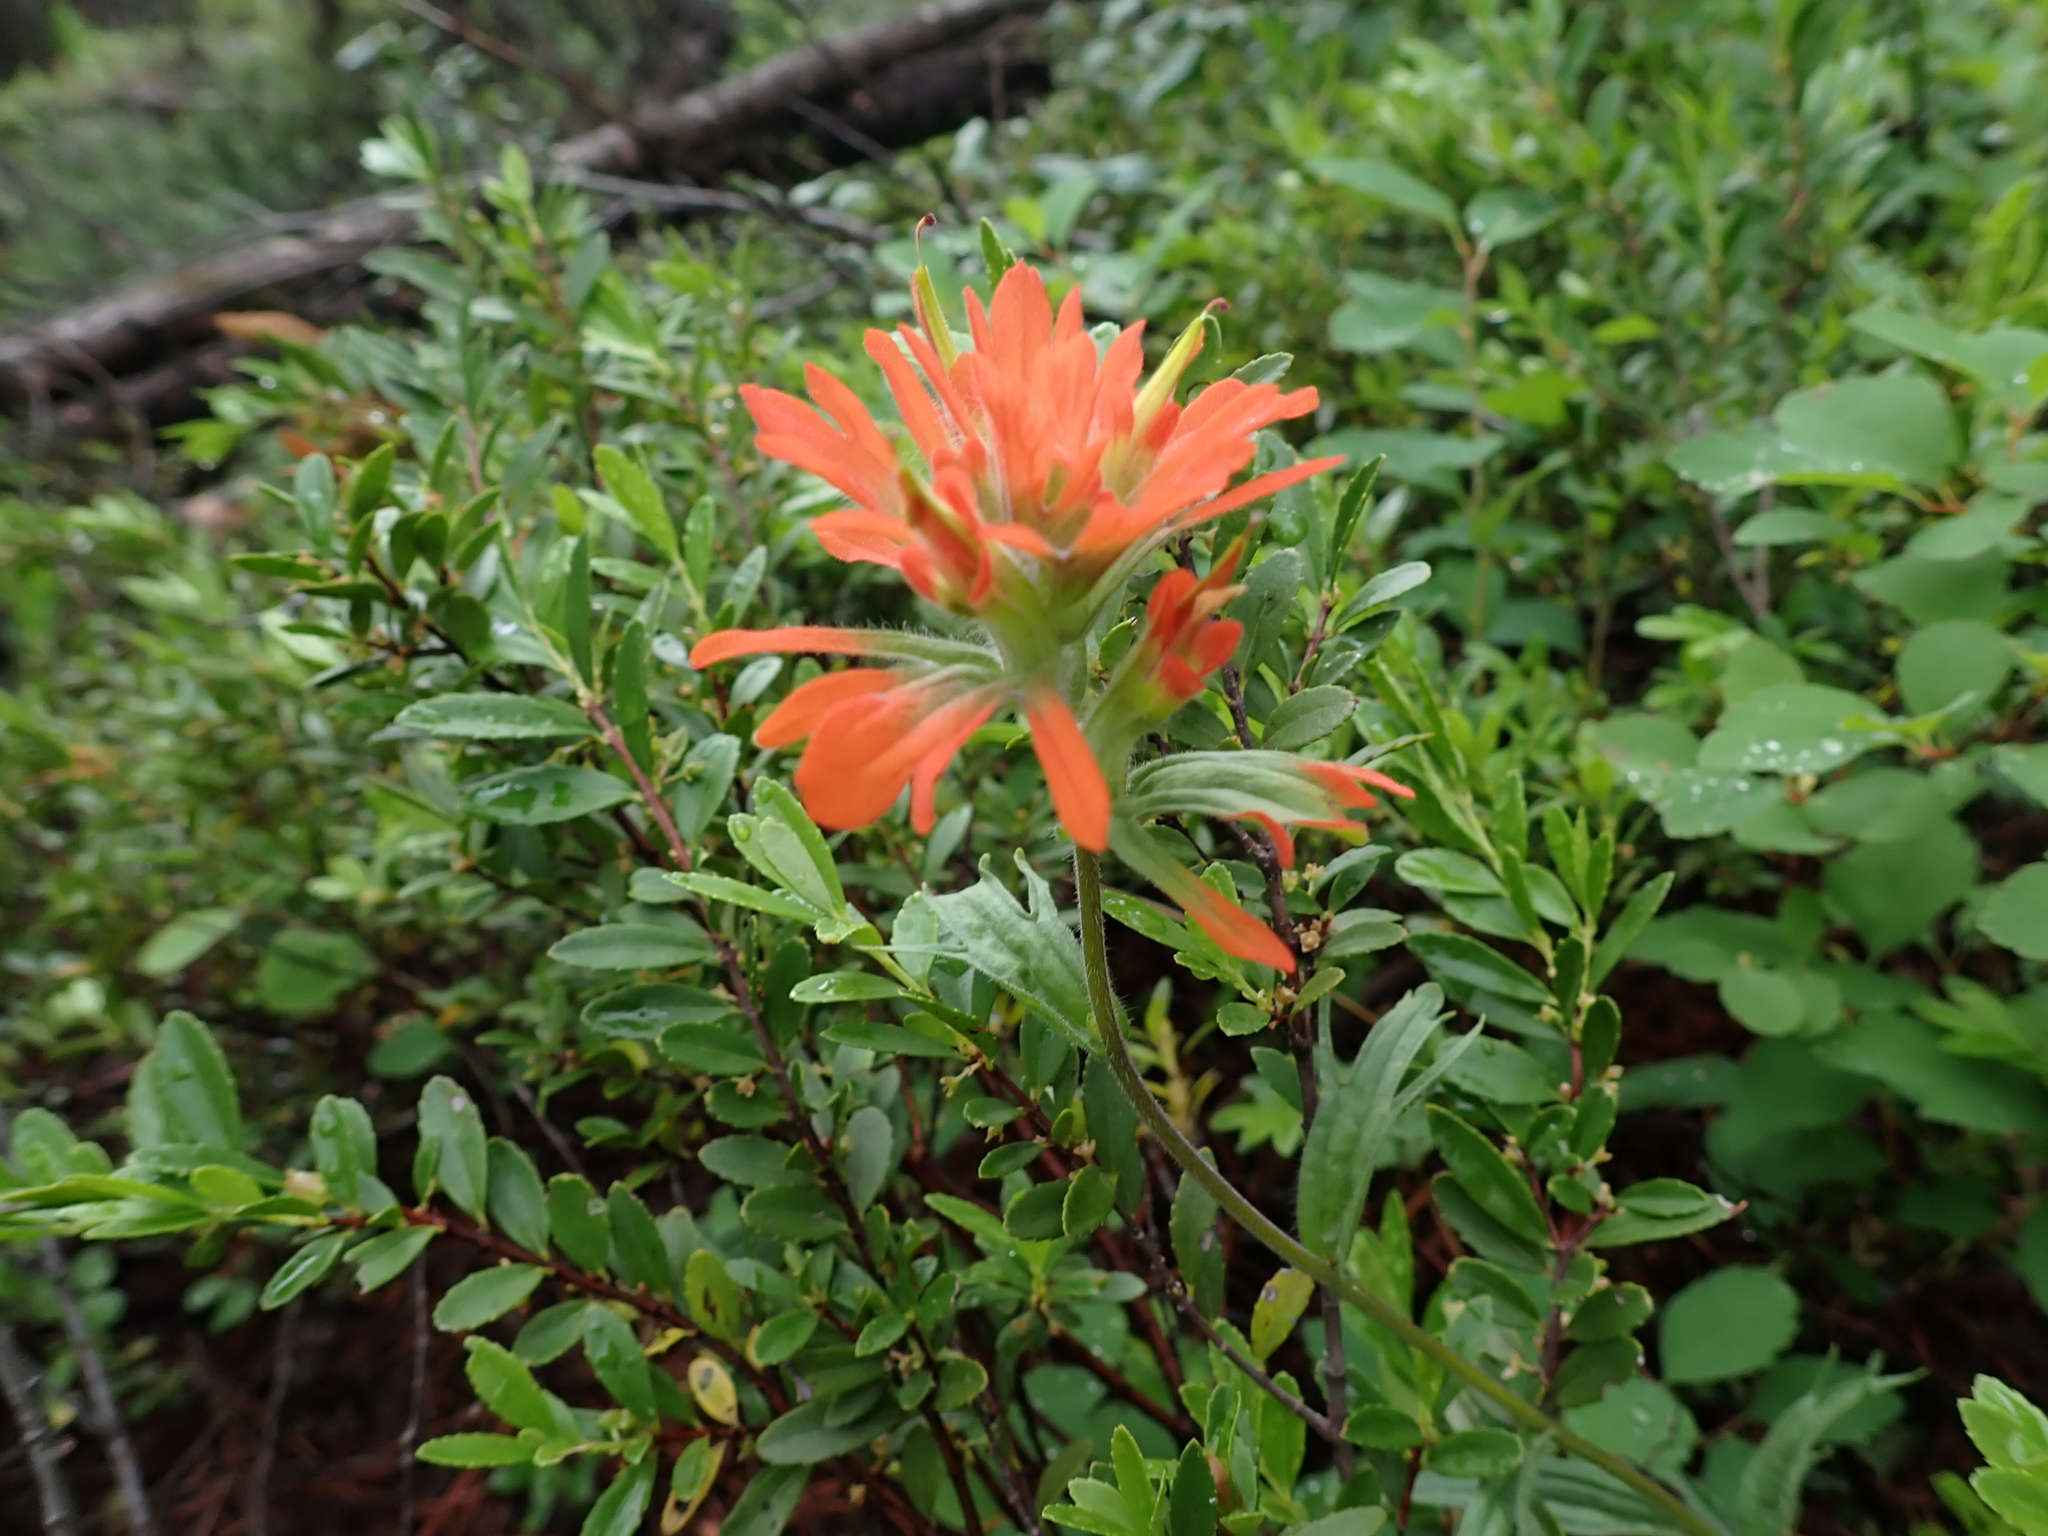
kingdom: Plantae
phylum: Tracheophyta
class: Magnoliopsida
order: Lamiales
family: Orobanchaceae
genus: Castilleja
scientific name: Castilleja hispida
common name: Bristly paintbrush
